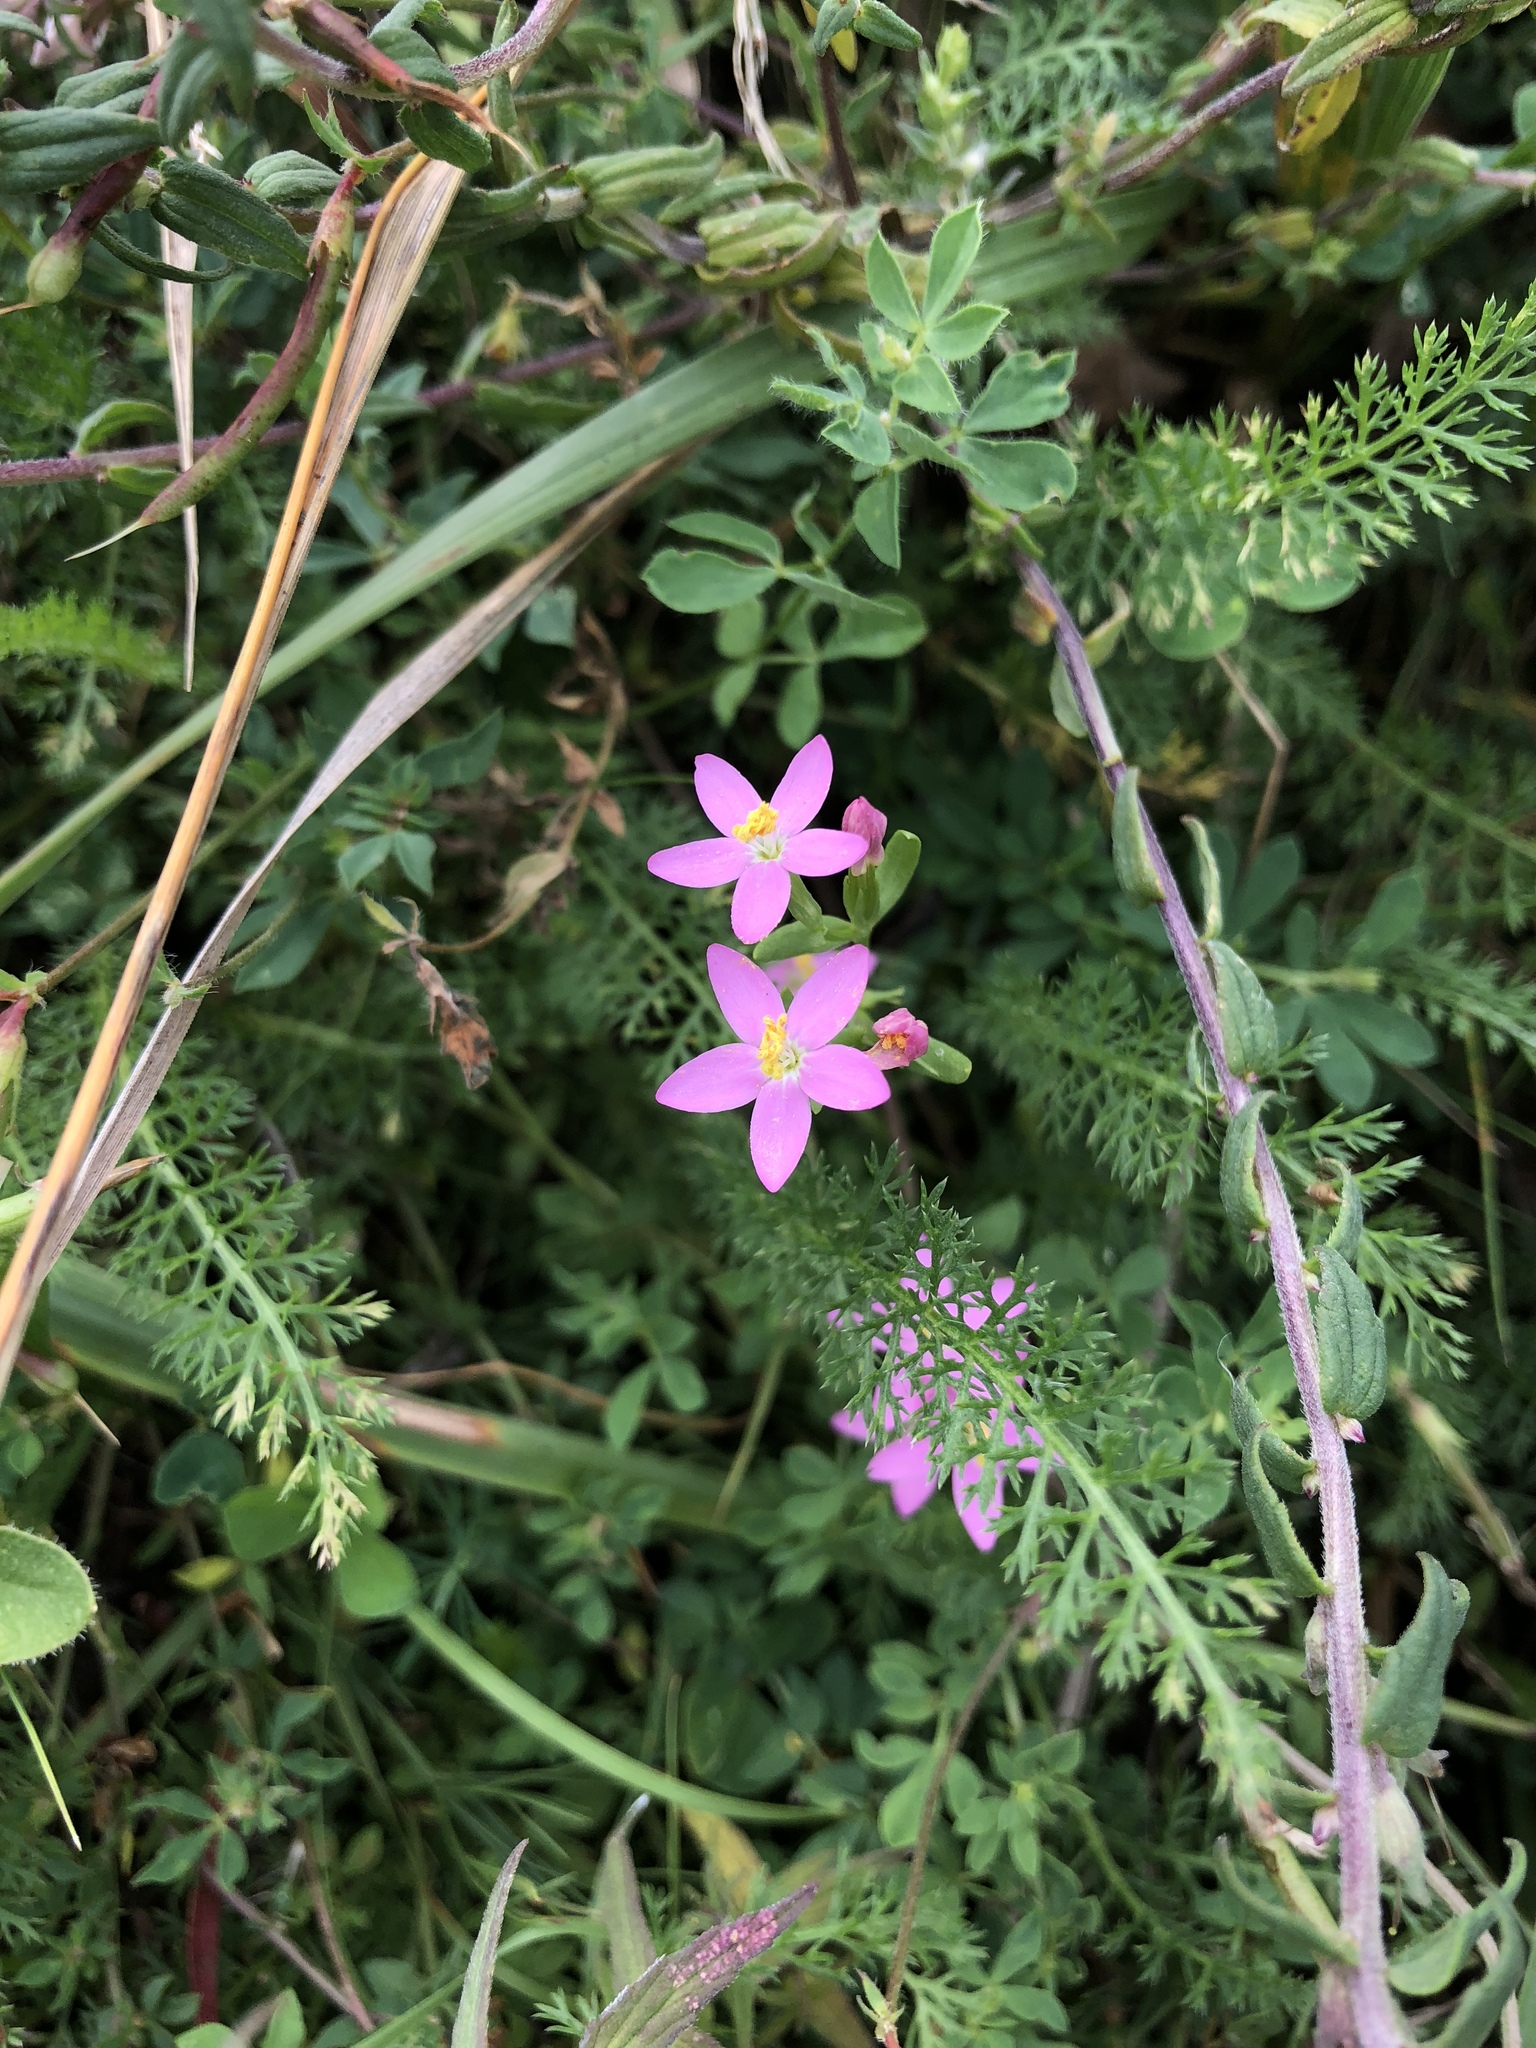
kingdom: Plantae
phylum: Tracheophyta
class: Magnoliopsida
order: Gentianales
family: Gentianaceae
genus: Centaurium
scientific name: Centaurium pulchellum
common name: Lesser centaury
